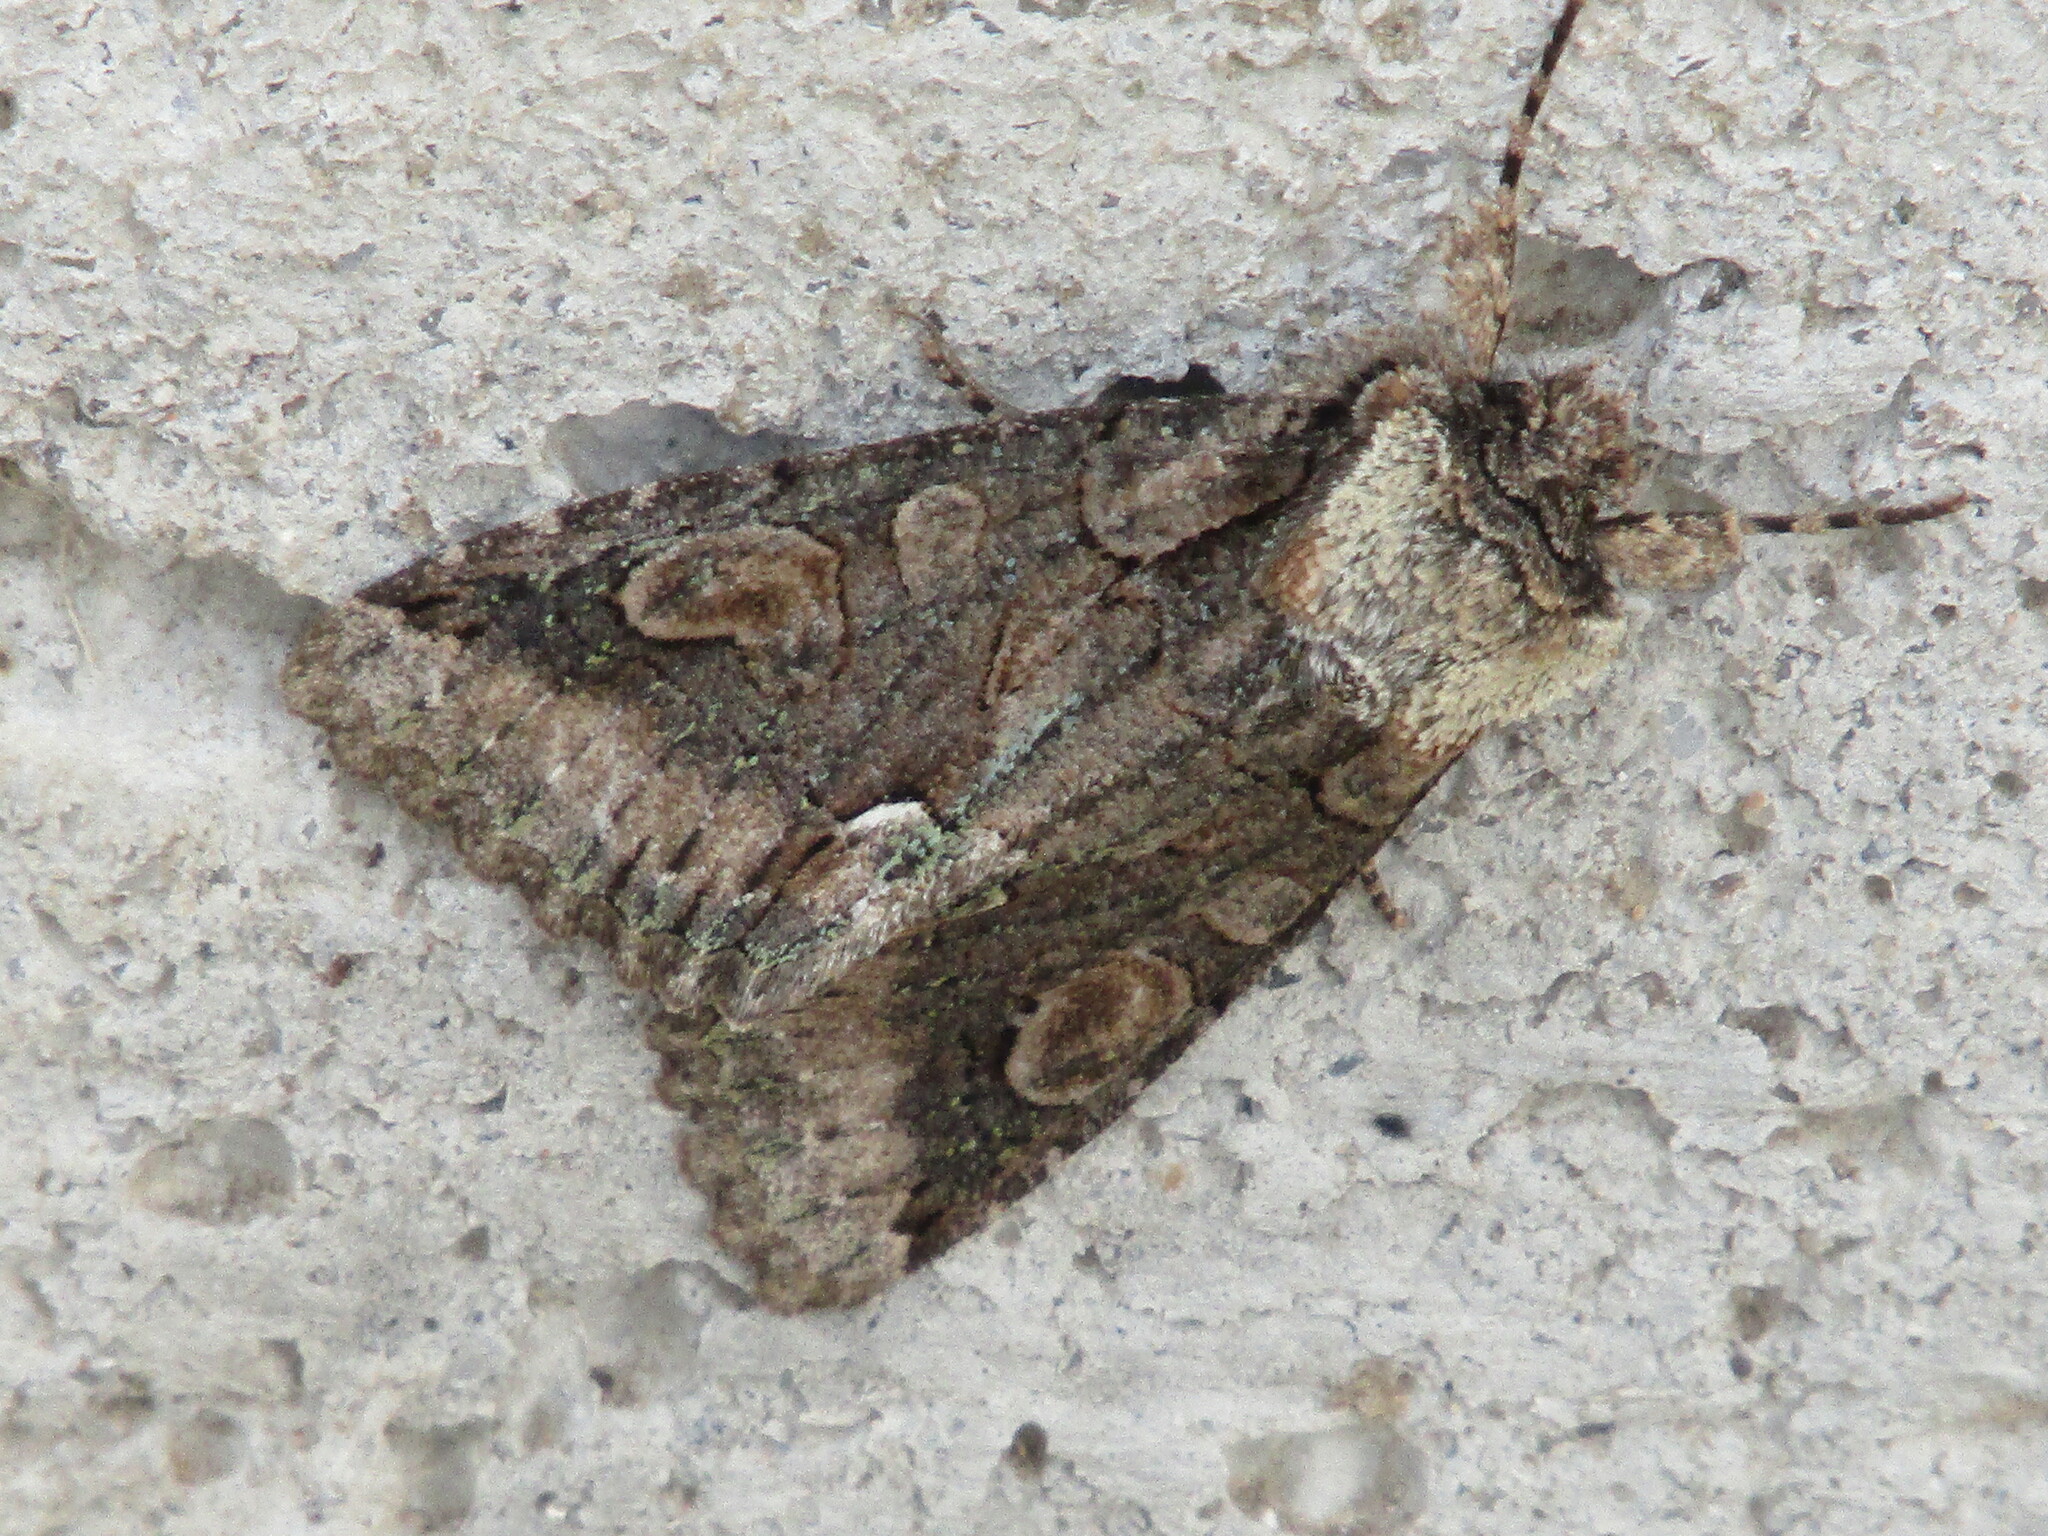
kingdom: Animalia
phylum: Arthropoda
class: Insecta
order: Lepidoptera
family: Noctuidae
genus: Allophyes
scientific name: Allophyes oxyacanthae
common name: Green-brindled crescent
